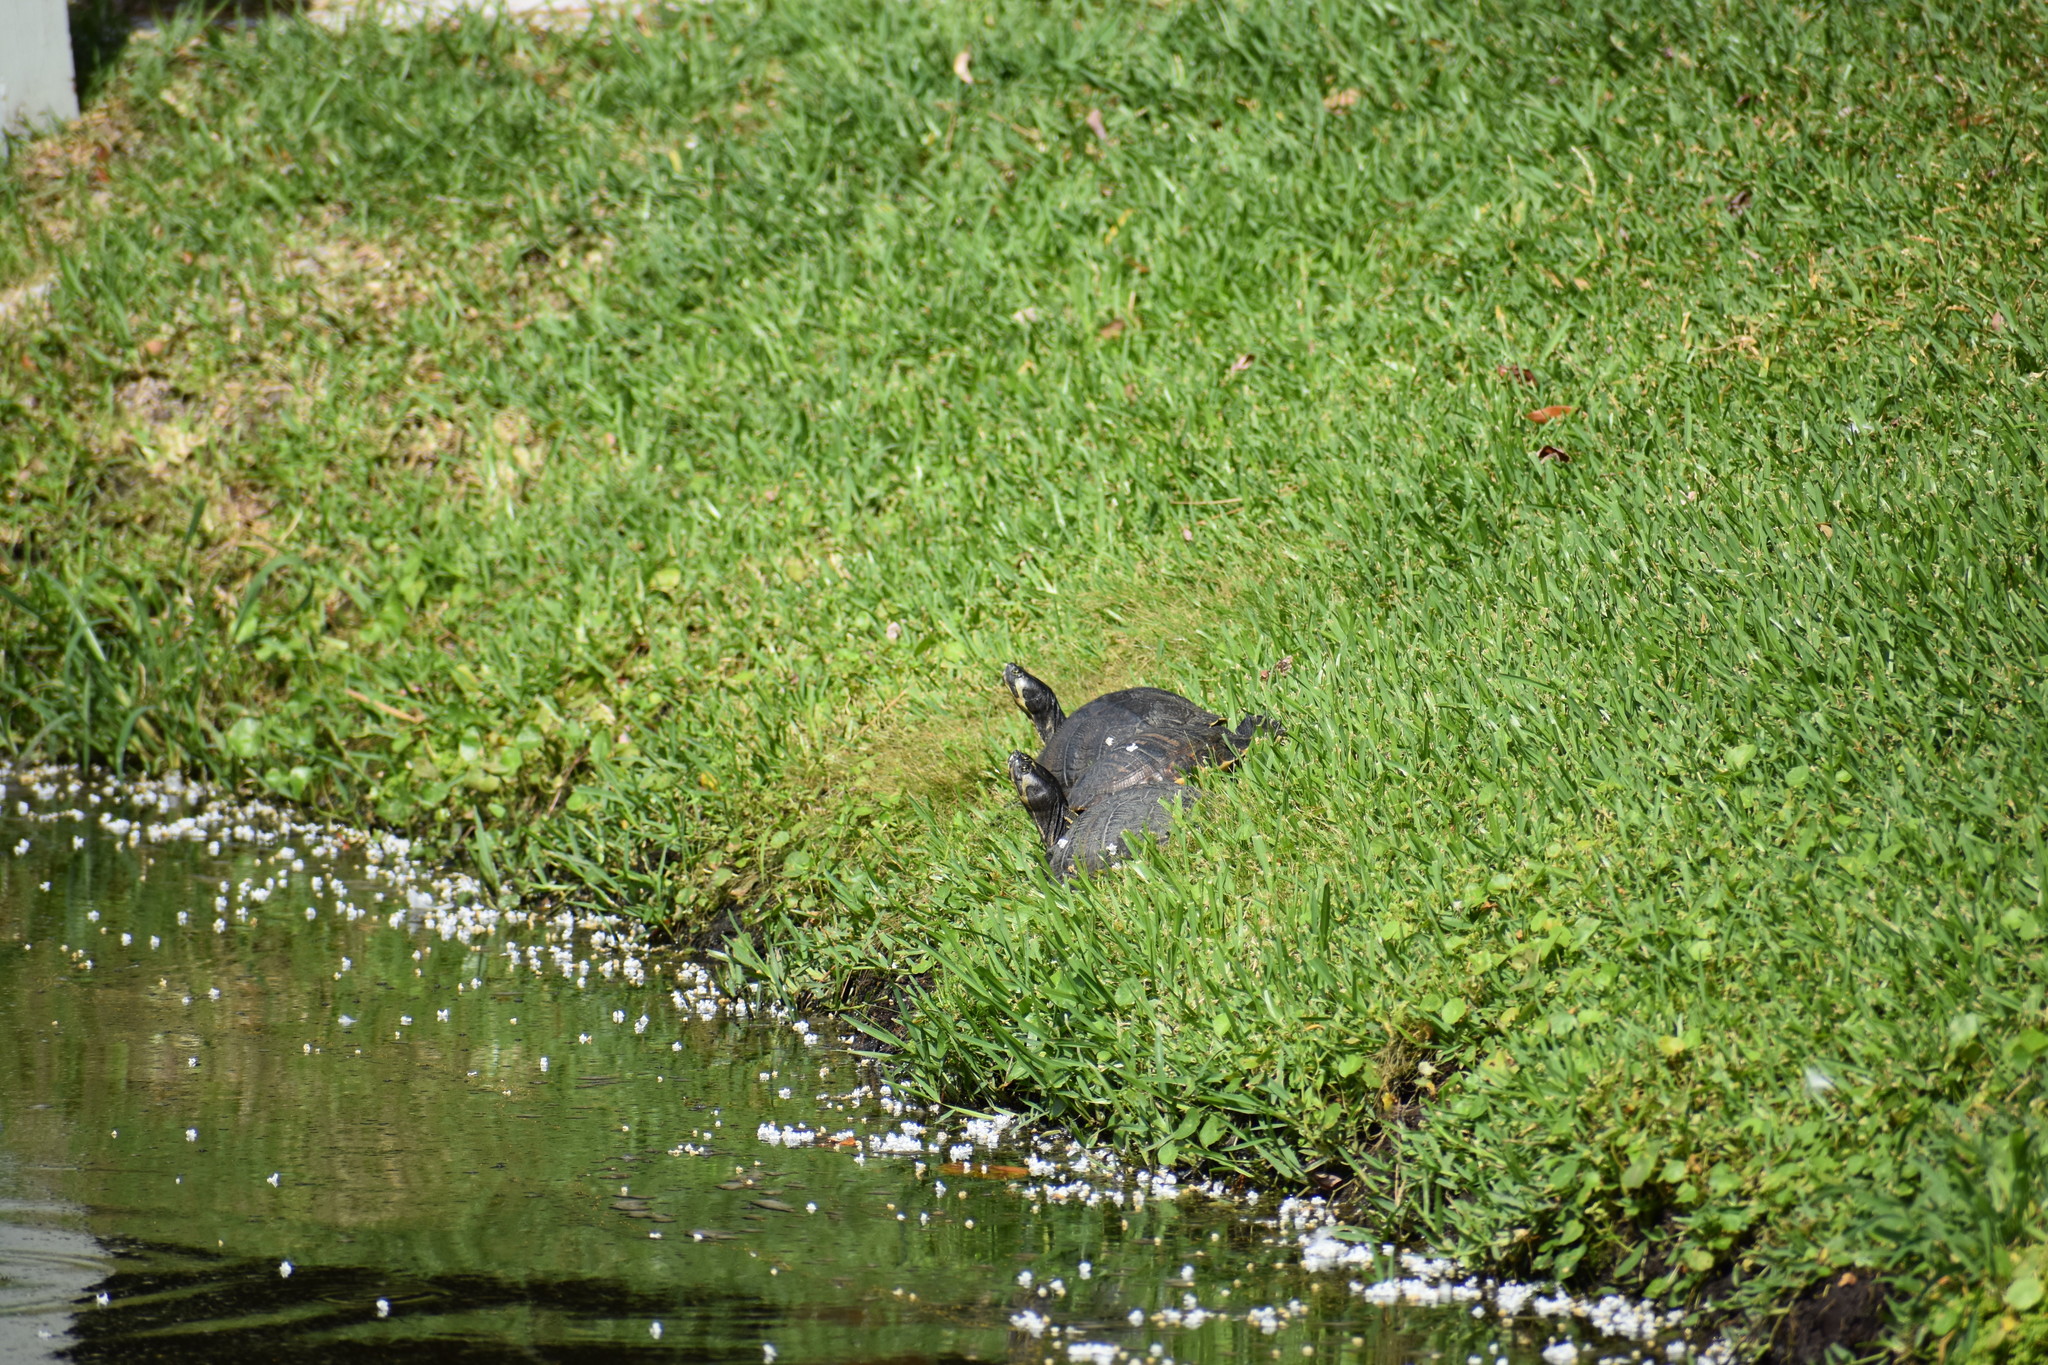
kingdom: Animalia
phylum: Chordata
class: Testudines
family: Emydidae
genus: Trachemys
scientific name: Trachemys scripta
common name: Slider
